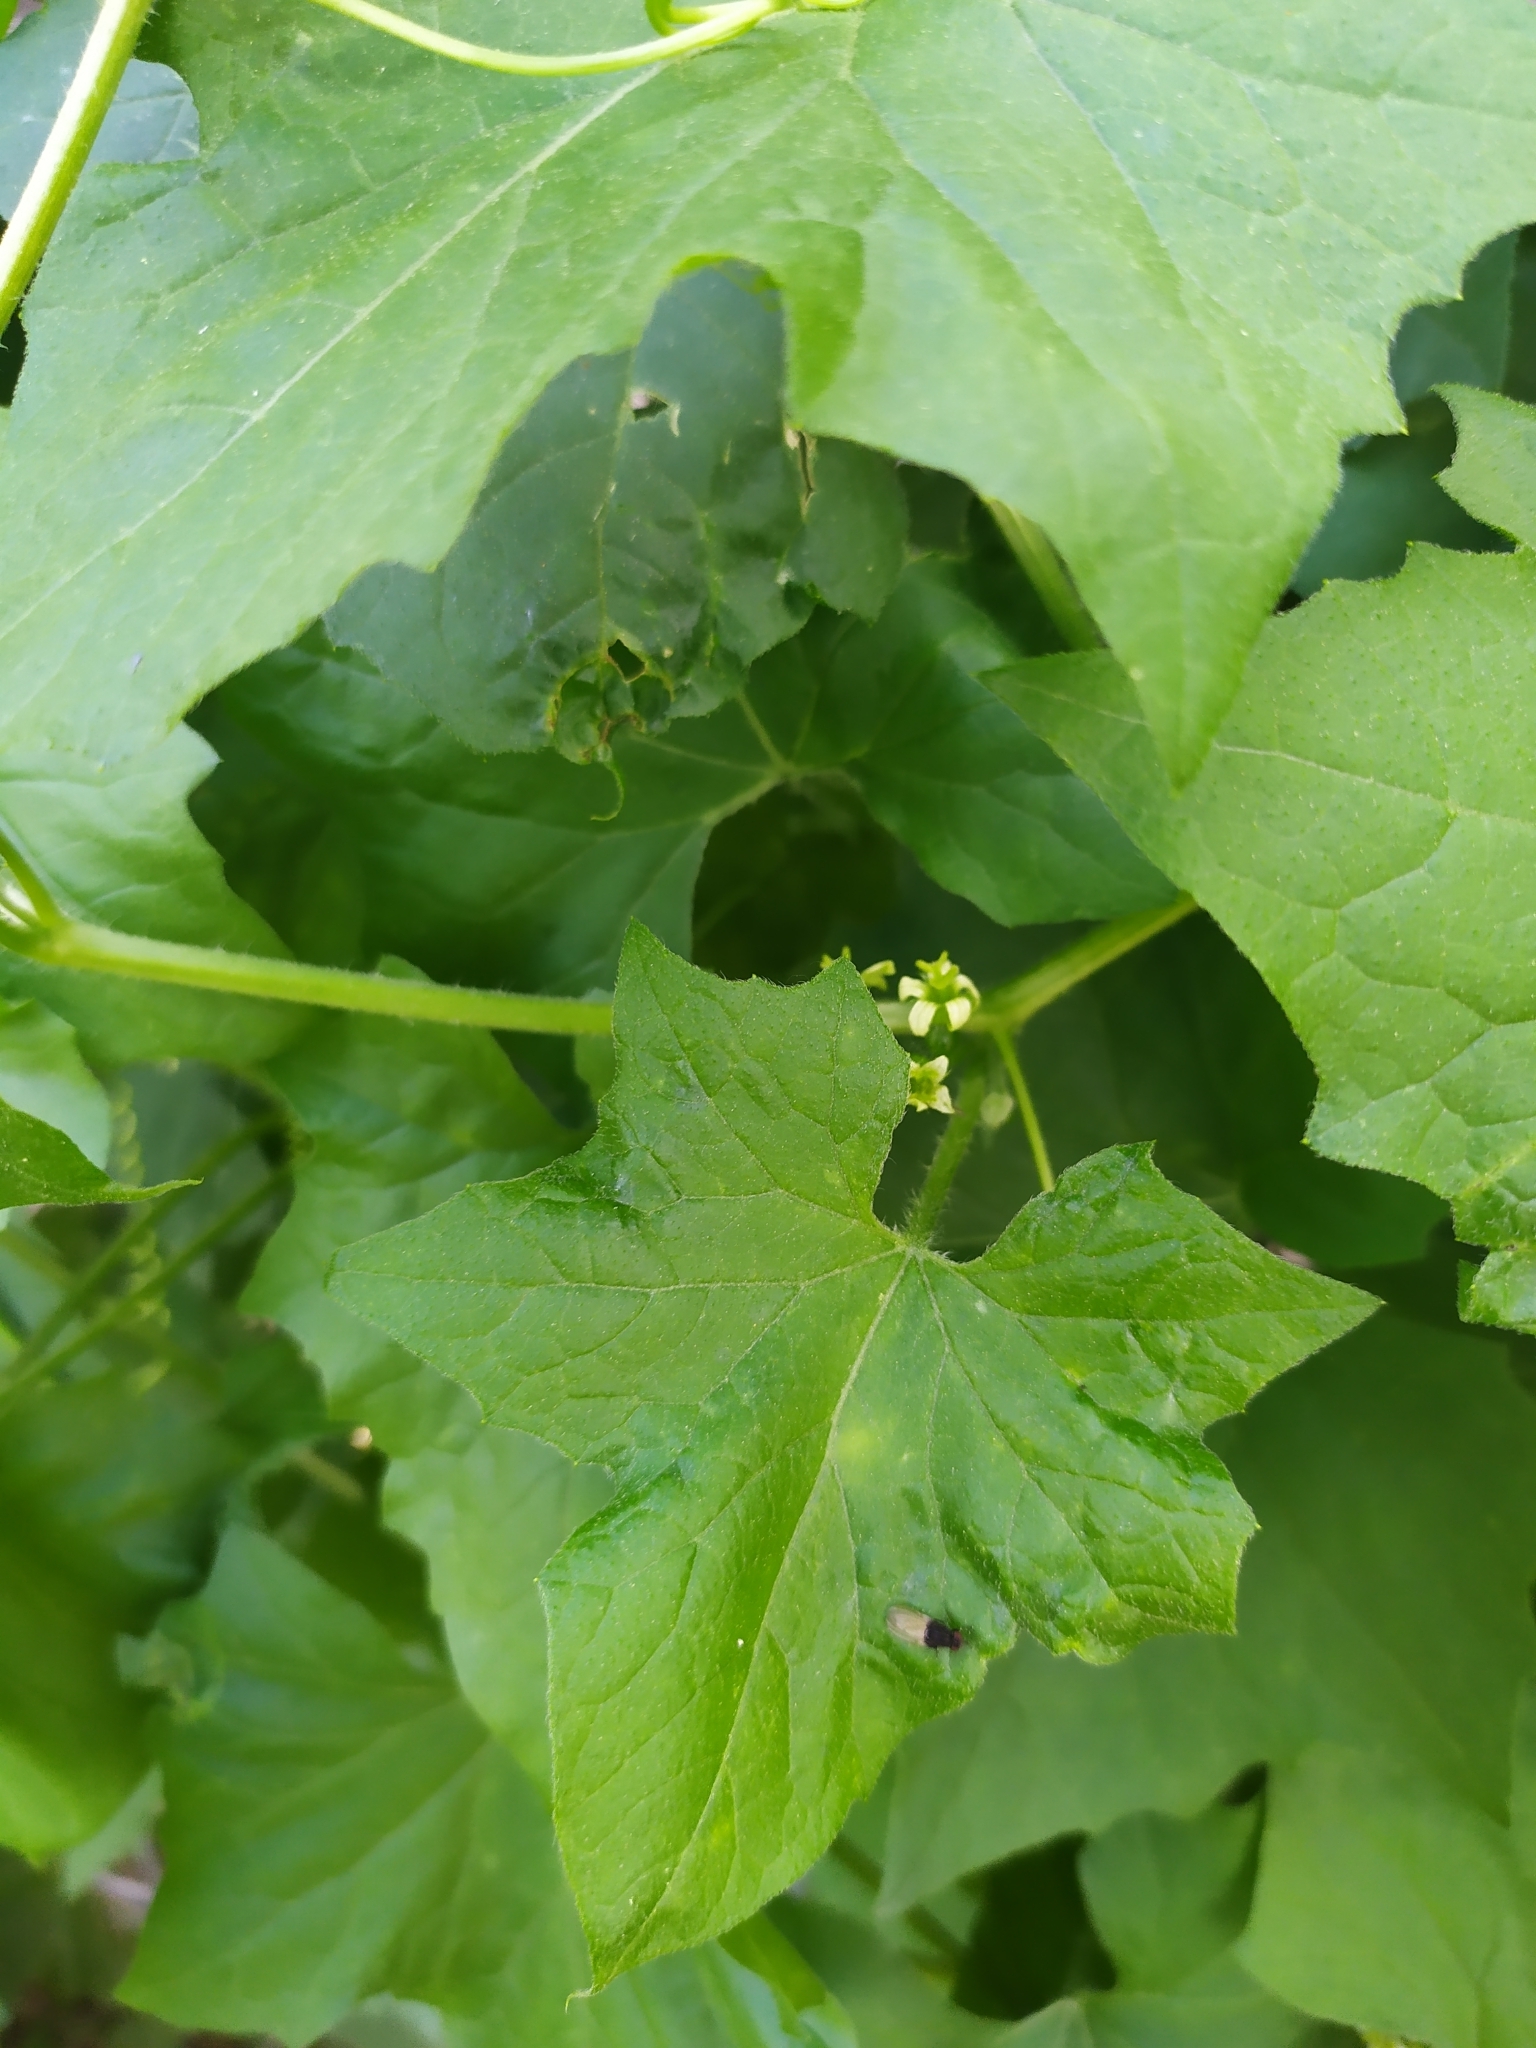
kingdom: Plantae
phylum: Tracheophyta
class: Magnoliopsida
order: Cucurbitales
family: Cucurbitaceae
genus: Bryonia
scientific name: Bryonia dioica
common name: White bryony
